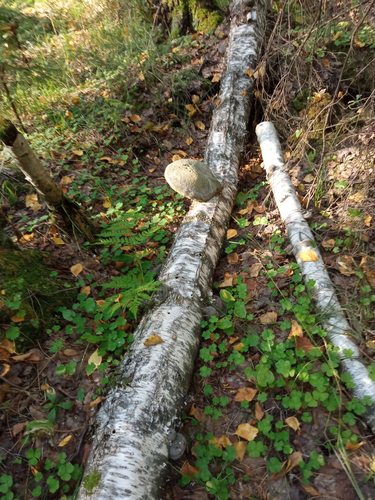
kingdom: Fungi
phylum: Basidiomycota
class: Agaricomycetes
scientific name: Agaricomycetes
